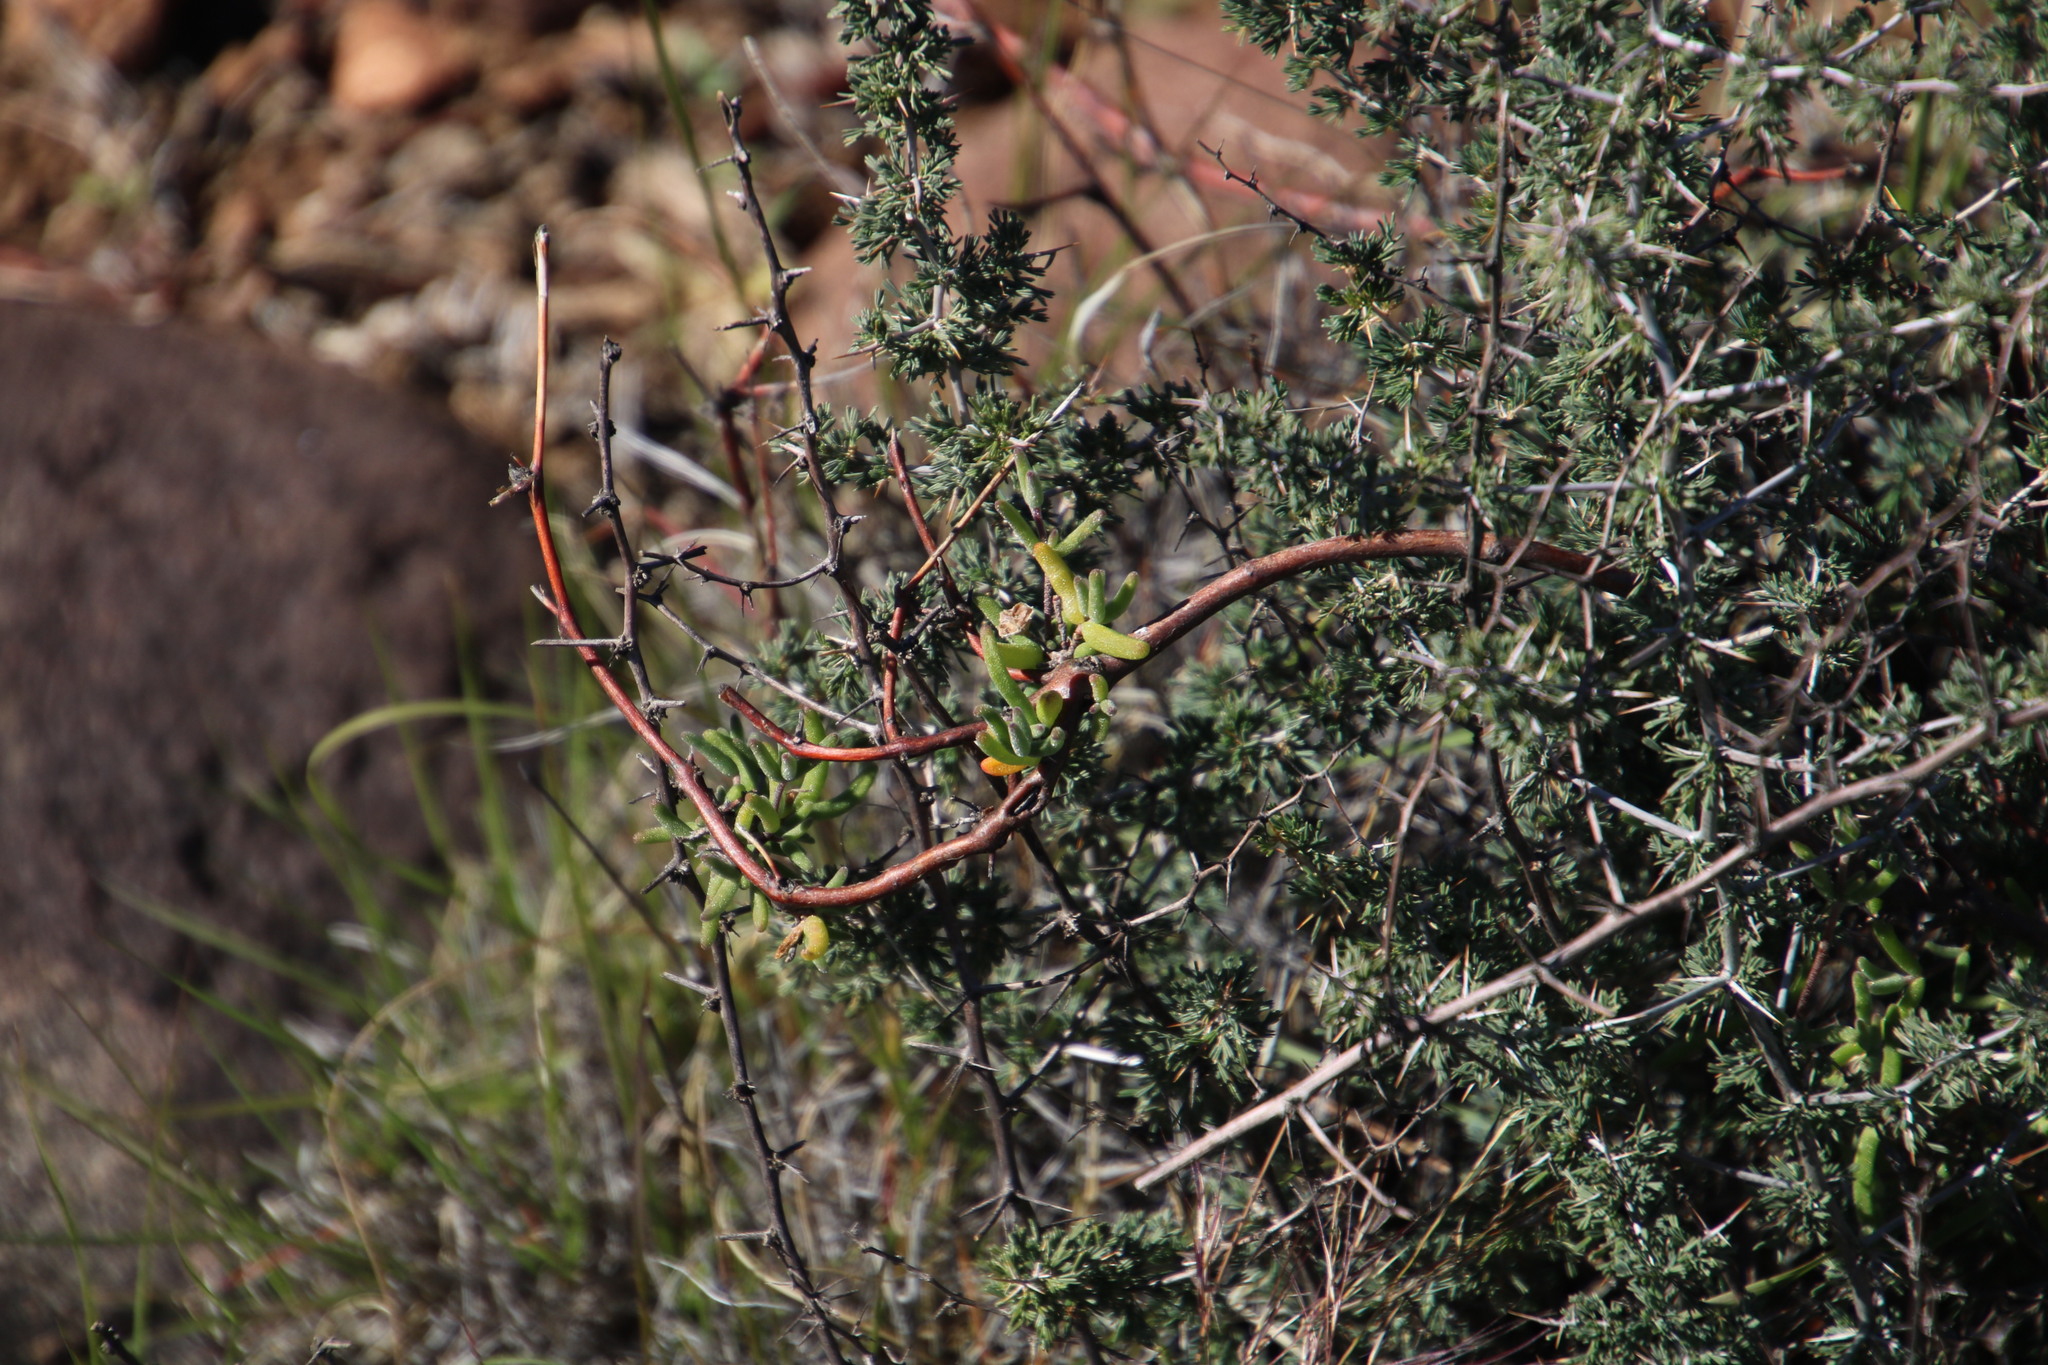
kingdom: Plantae
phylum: Tracheophyta
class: Liliopsida
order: Asparagales
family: Asparagaceae
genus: Asparagus
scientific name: Asparagus suaveolens
